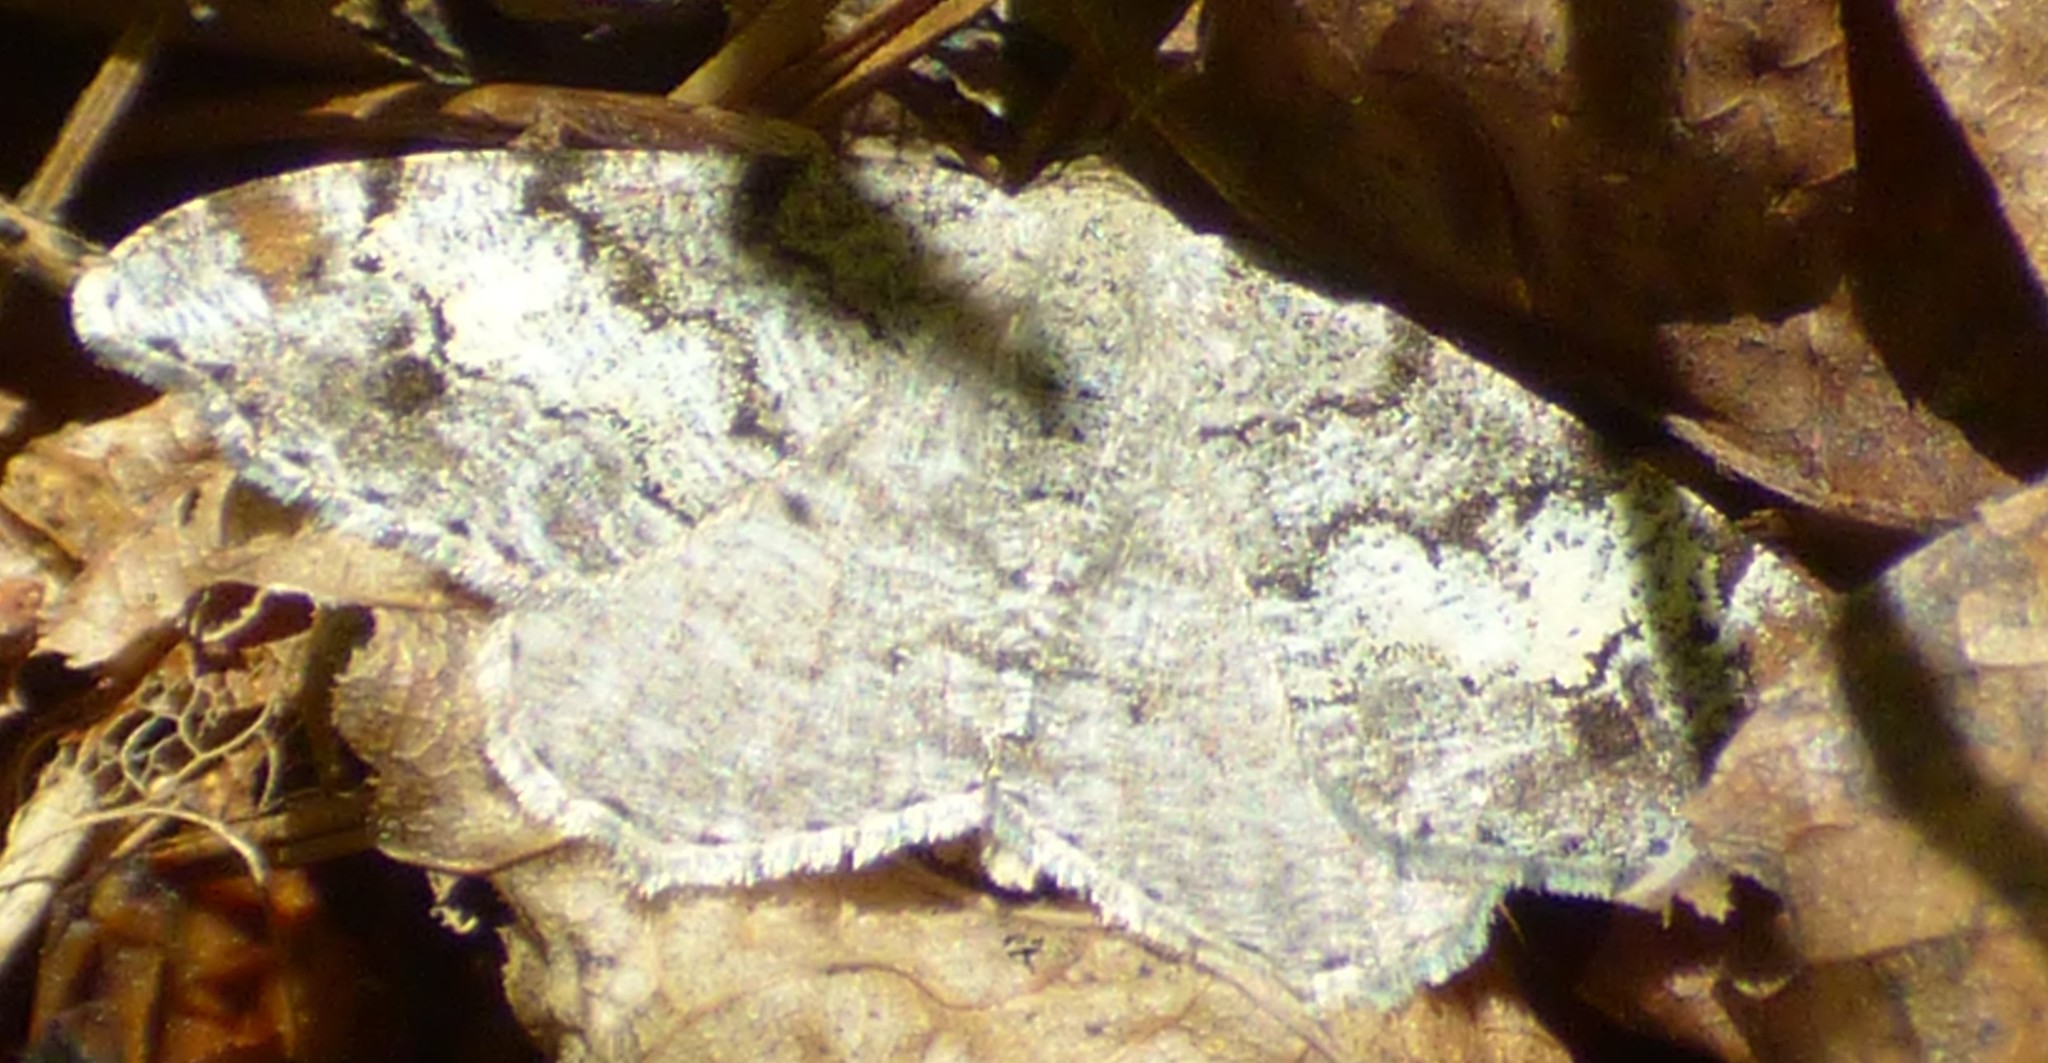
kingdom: Animalia
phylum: Arthropoda
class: Insecta
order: Lepidoptera
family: Geometridae
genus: Macaria
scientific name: Macaria granitata
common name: Granite moth
